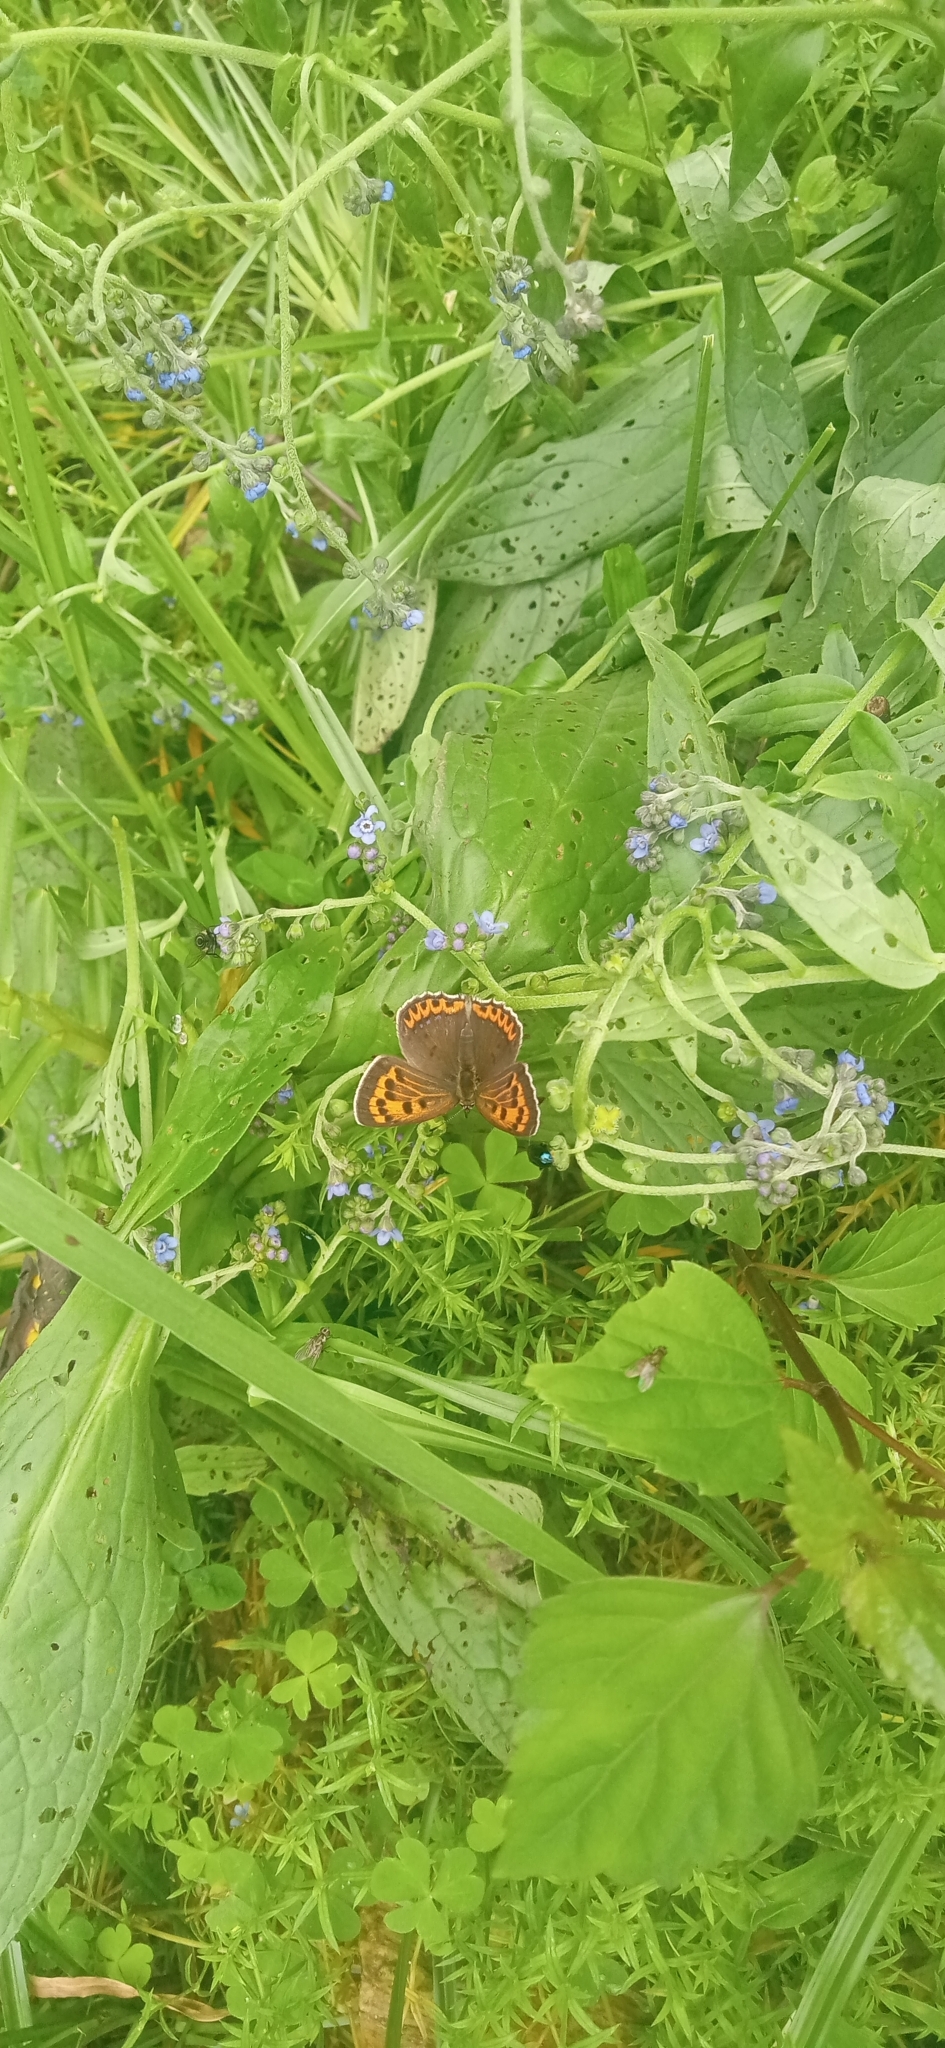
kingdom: Animalia
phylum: Arthropoda
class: Insecta
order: Lepidoptera
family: Lycaenidae
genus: Lycaena
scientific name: Lycaena panava
